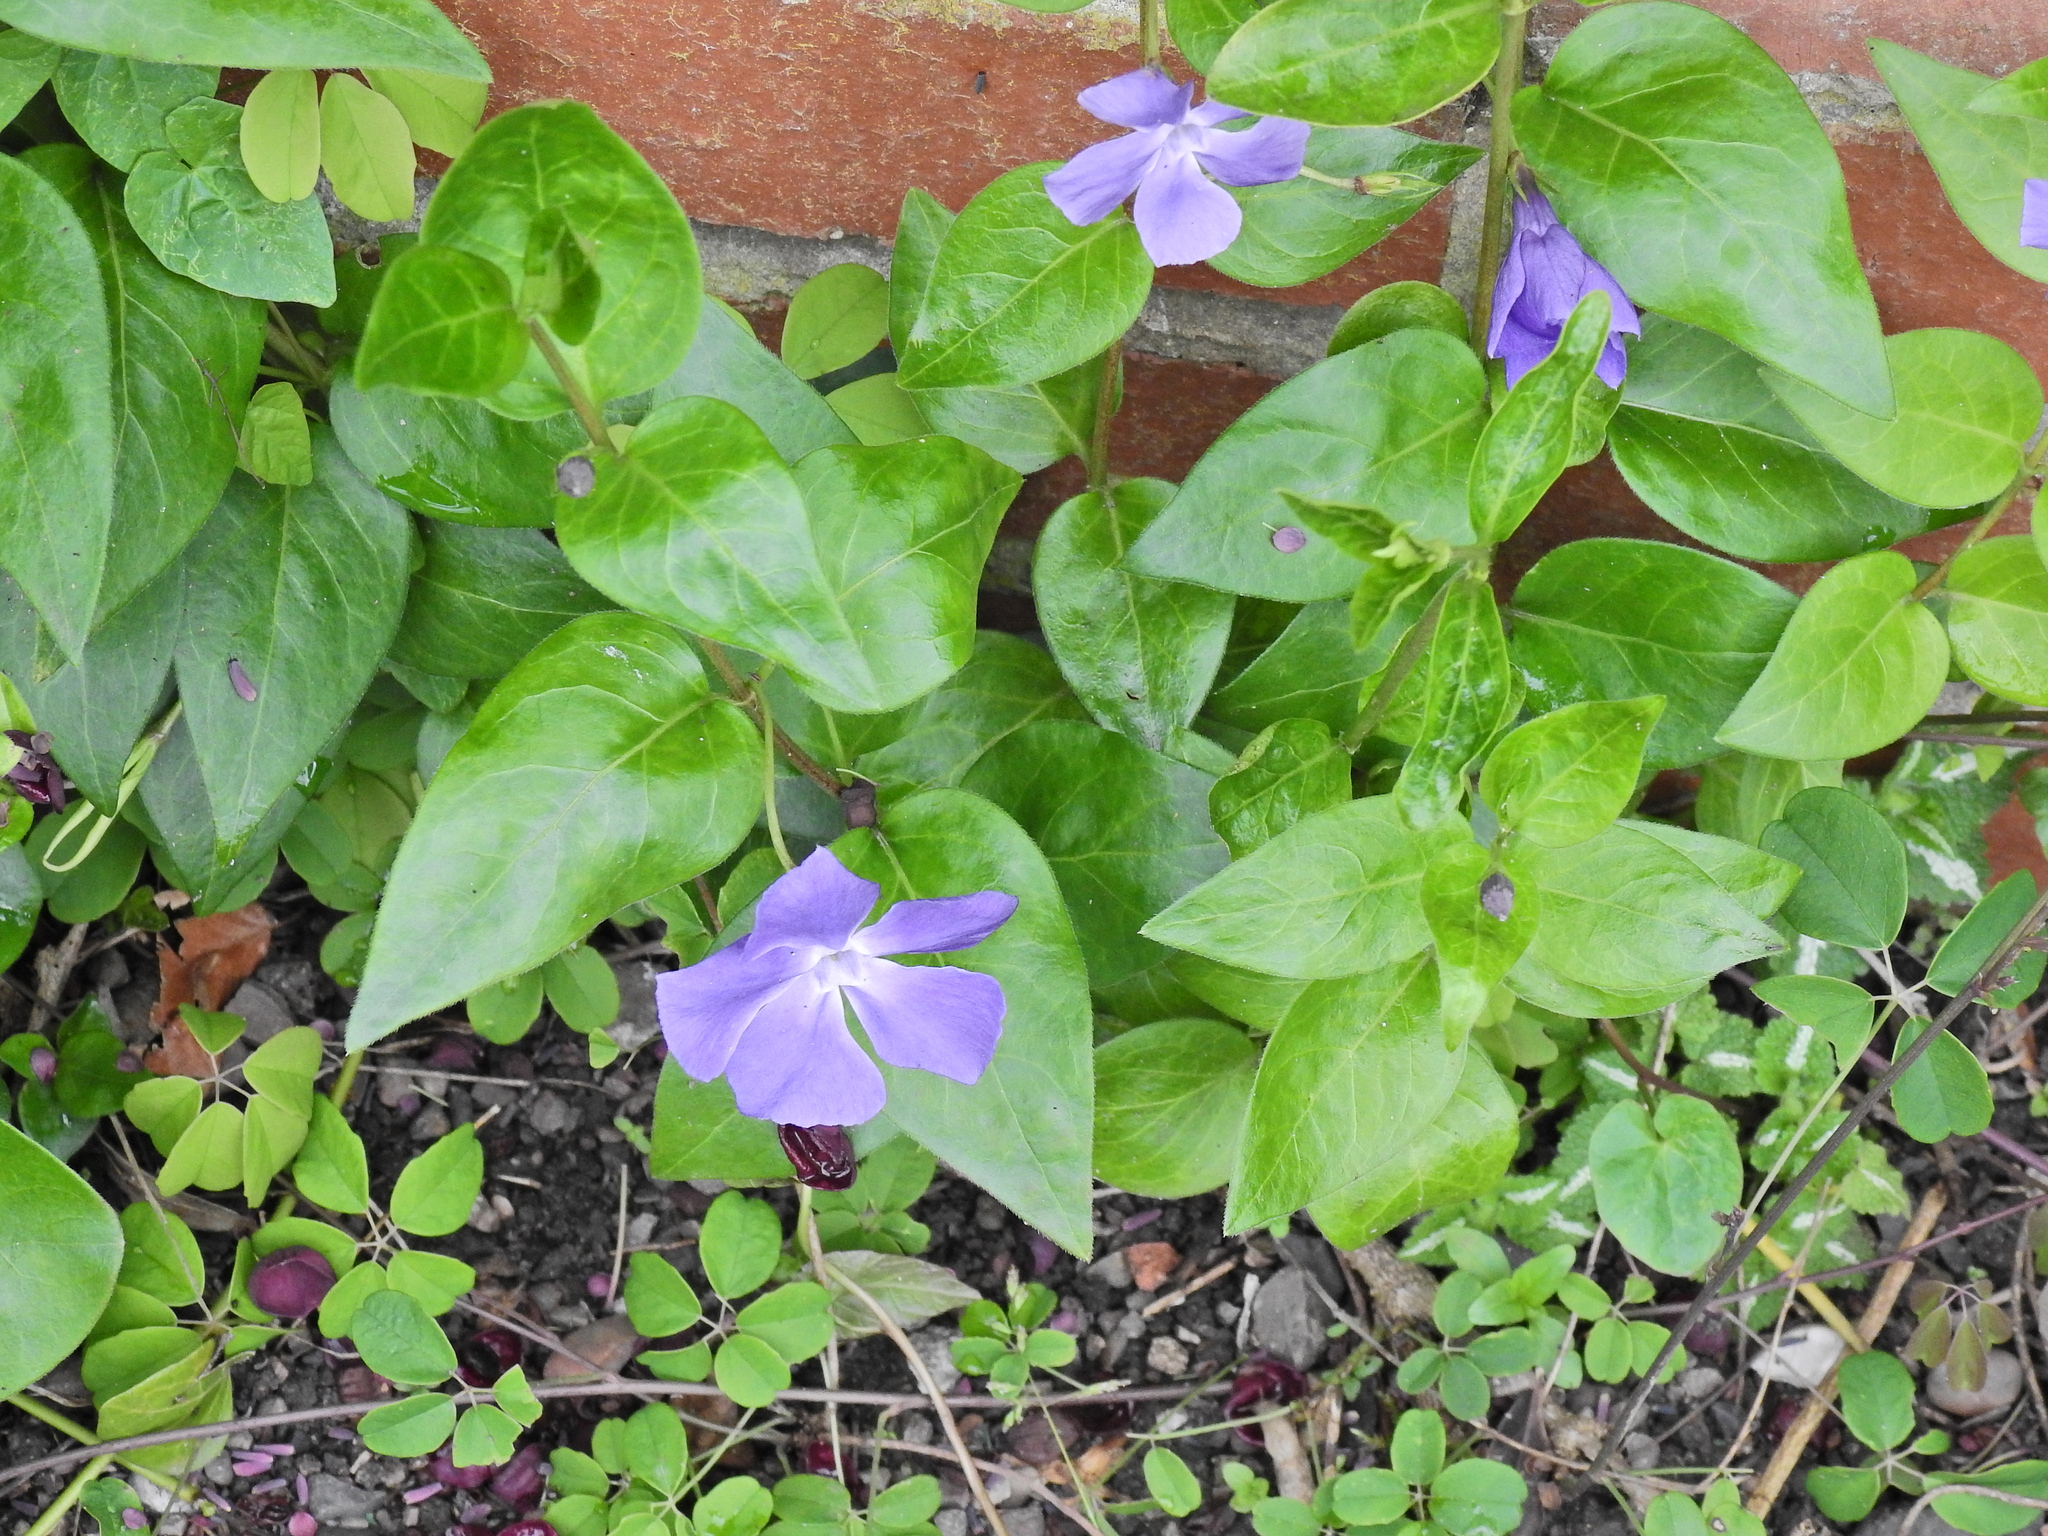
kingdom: Plantae
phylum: Tracheophyta
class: Magnoliopsida
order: Gentianales
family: Apocynaceae
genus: Vinca
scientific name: Vinca major
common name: Greater periwinkle
